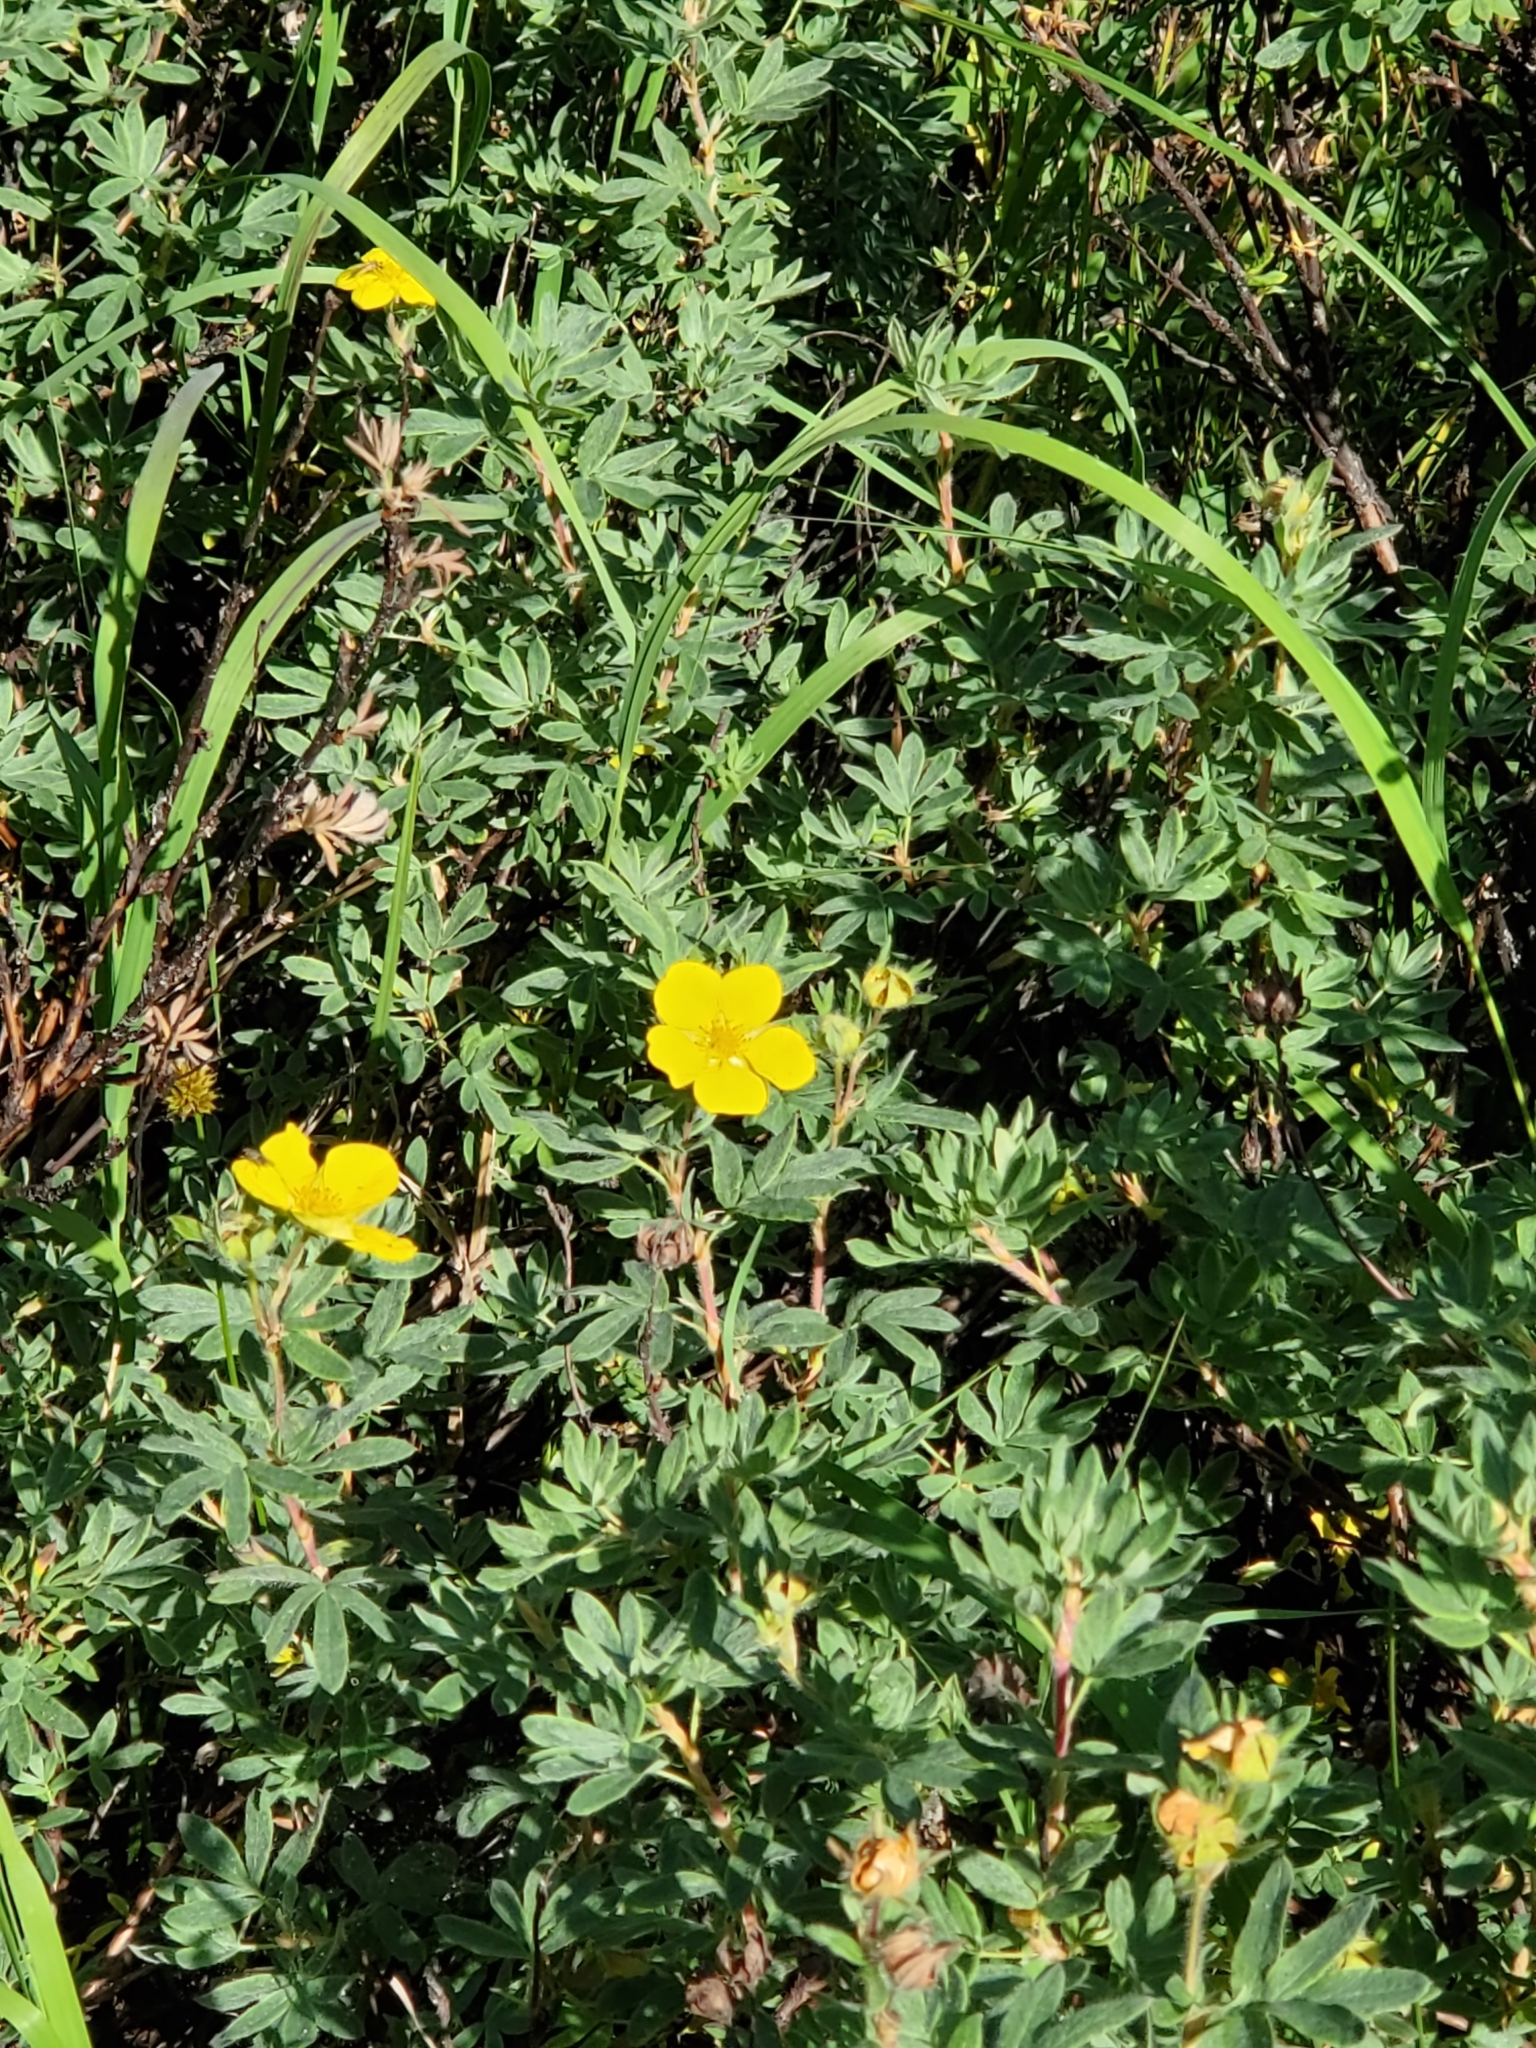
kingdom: Plantae
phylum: Tracheophyta
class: Magnoliopsida
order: Rosales
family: Rosaceae
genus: Dasiphora
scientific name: Dasiphora fruticosa
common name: Shrubby cinquefoil
